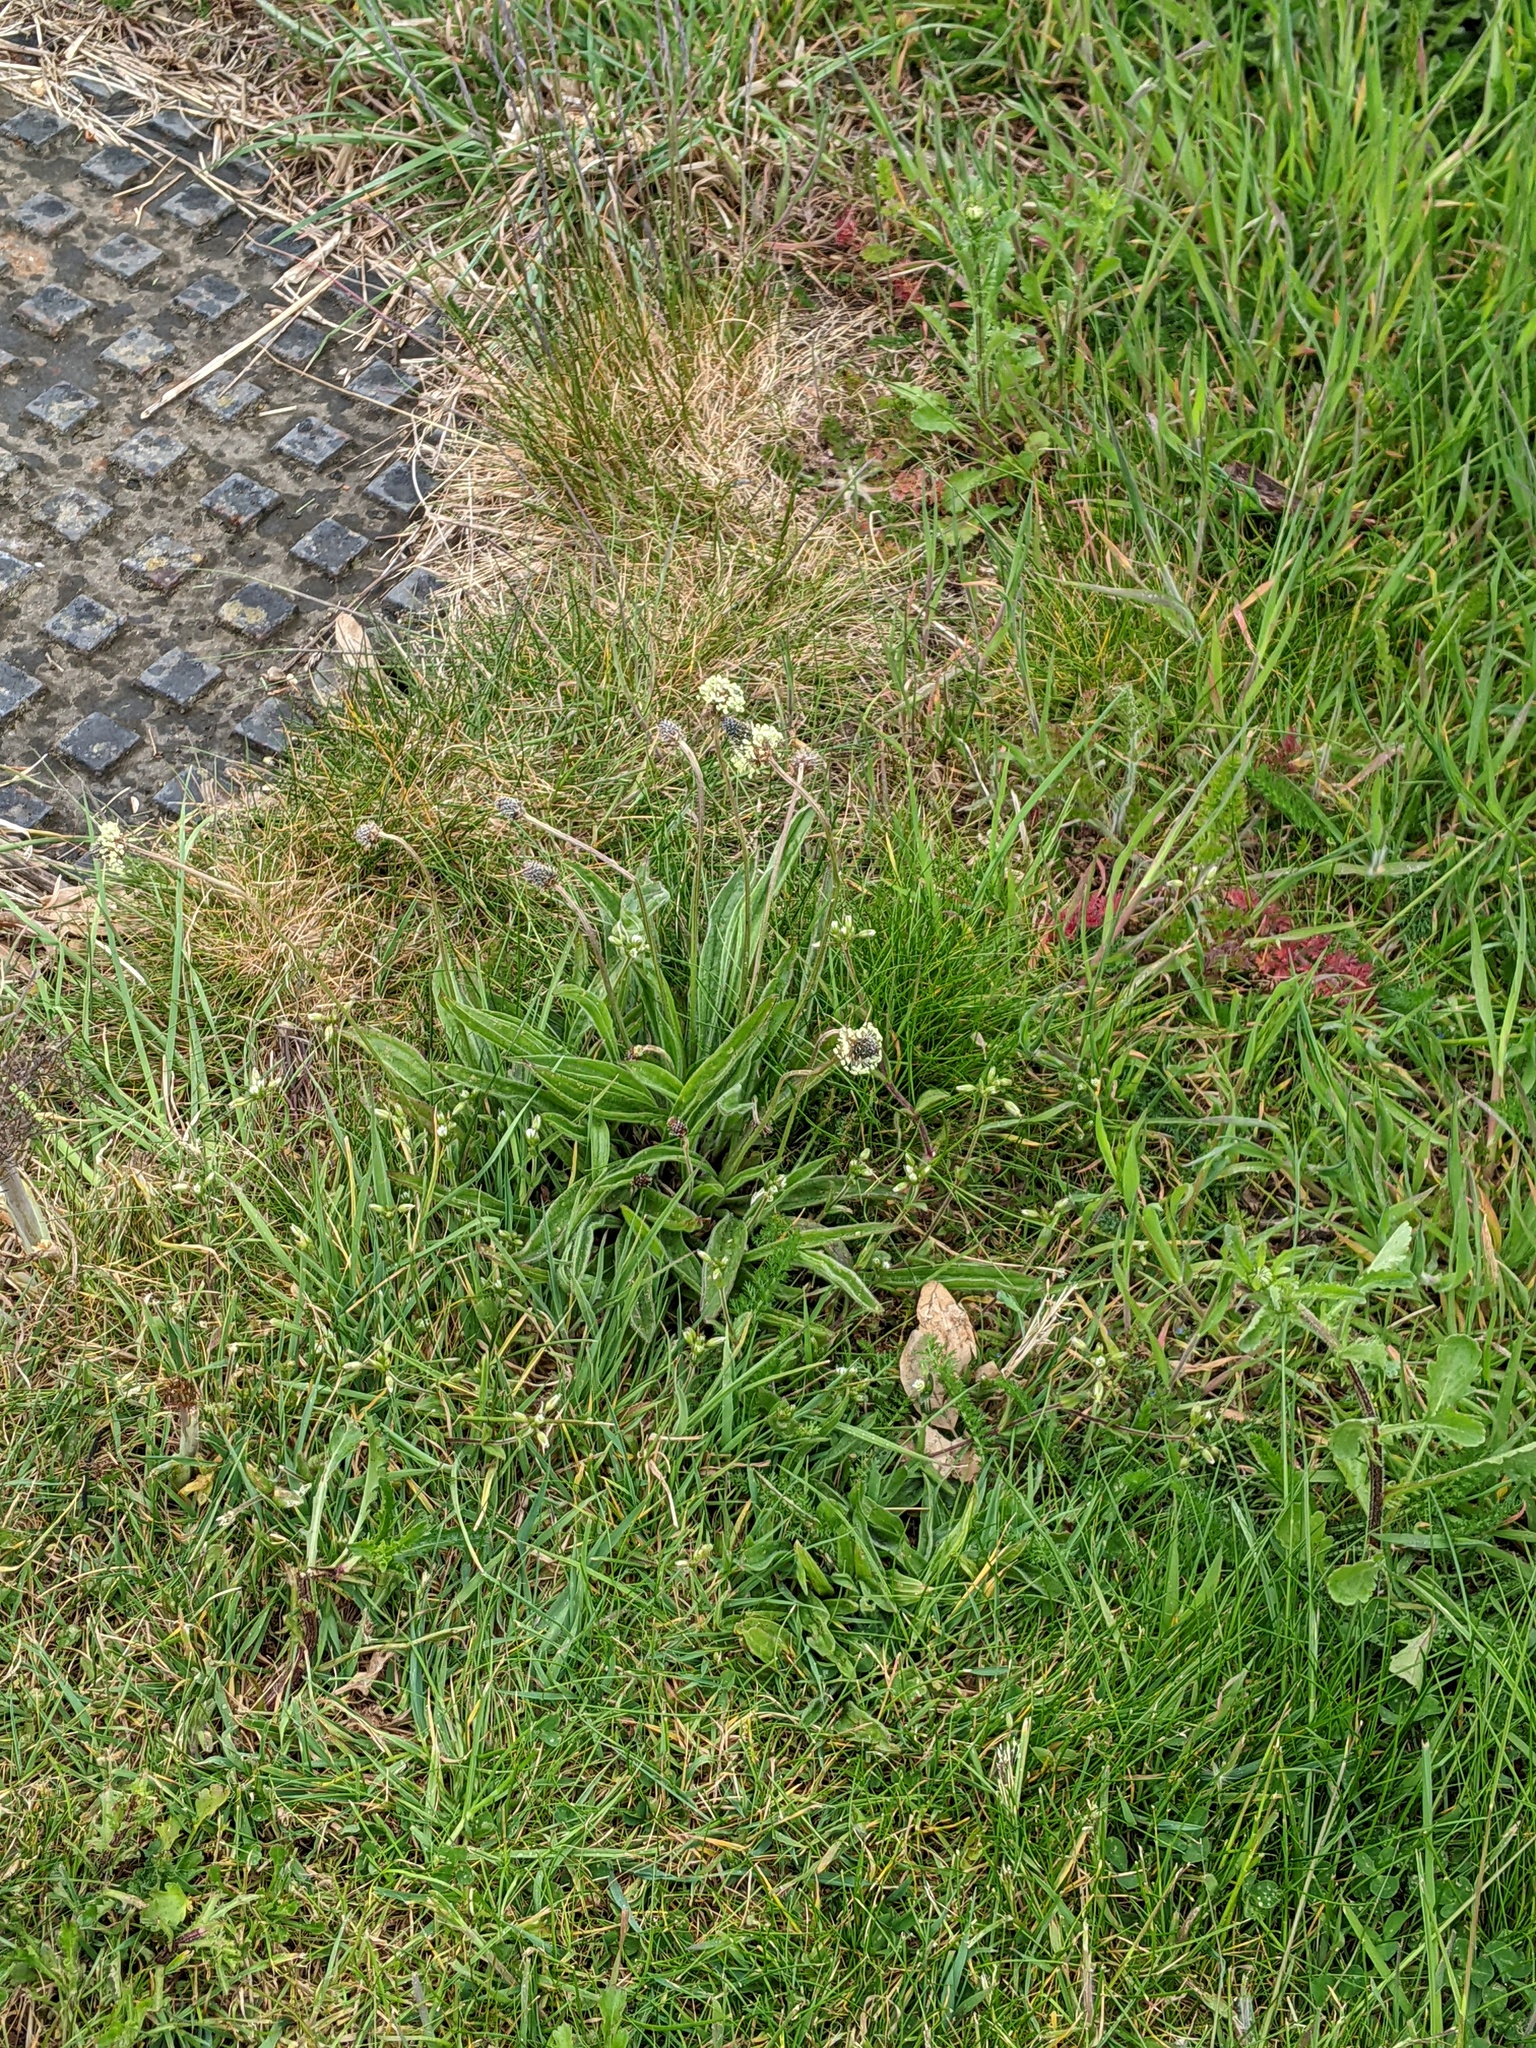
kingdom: Plantae
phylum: Tracheophyta
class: Magnoliopsida
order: Lamiales
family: Plantaginaceae
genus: Plantago
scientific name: Plantago lanceolata
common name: Ribwort plantain
